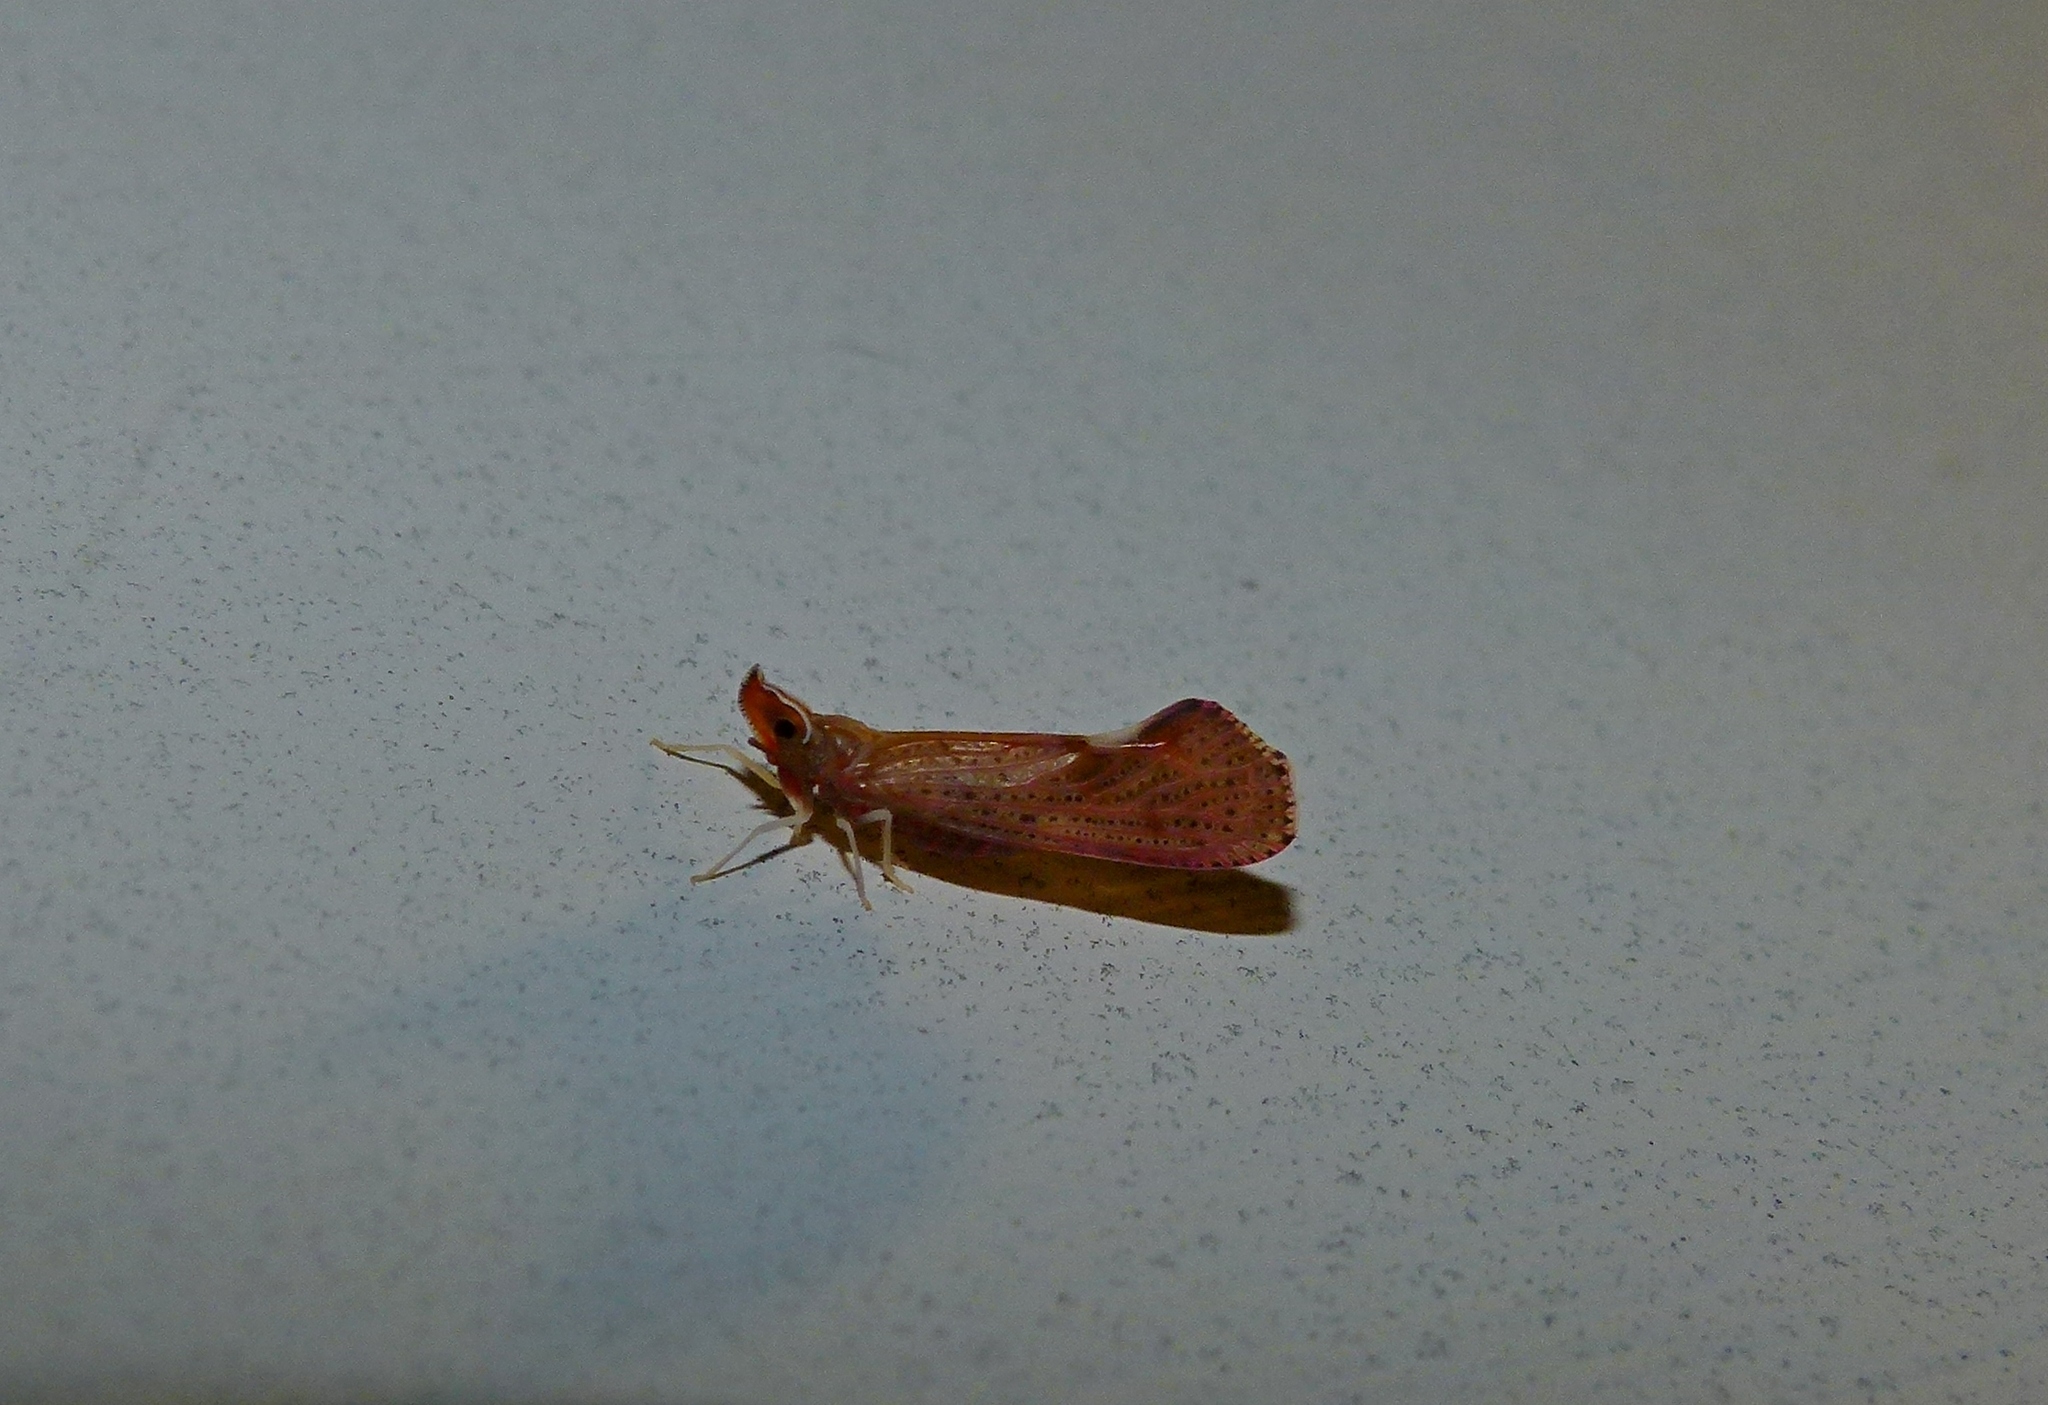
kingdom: Animalia
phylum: Arthropoda
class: Insecta
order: Hemiptera
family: Derbidae
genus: Apache
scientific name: Apache degeeri
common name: Red-fanned planthopper
